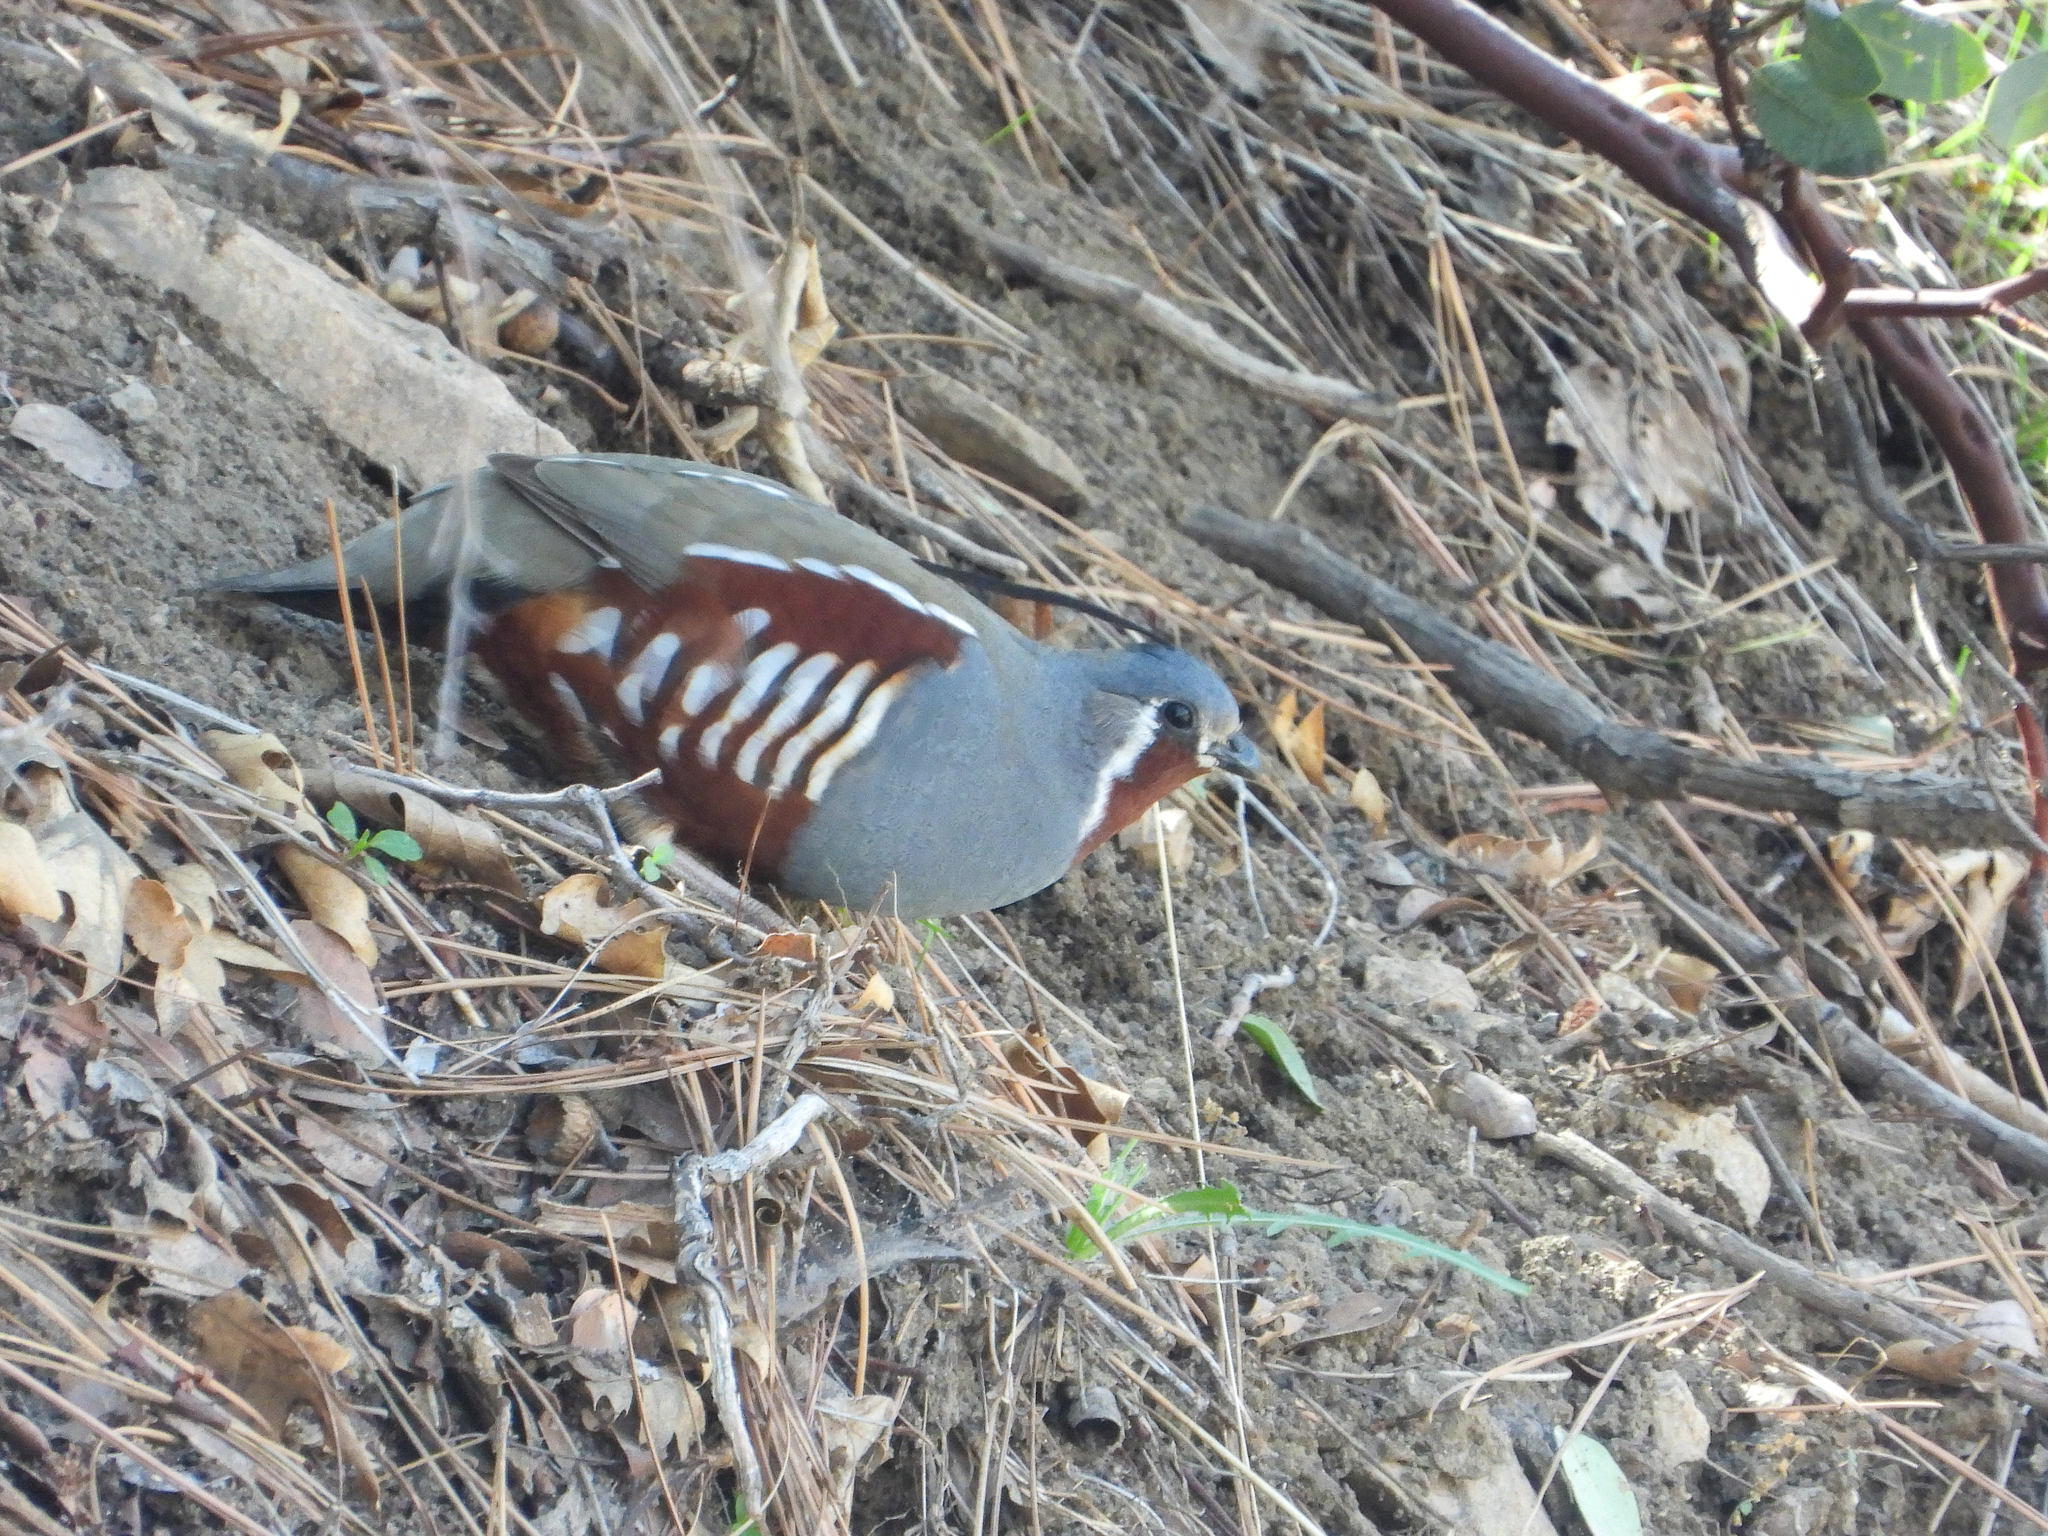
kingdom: Animalia
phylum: Chordata
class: Aves
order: Galliformes
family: Odontophoridae
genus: Oreortyx
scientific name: Oreortyx pictus
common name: Mountain quail
